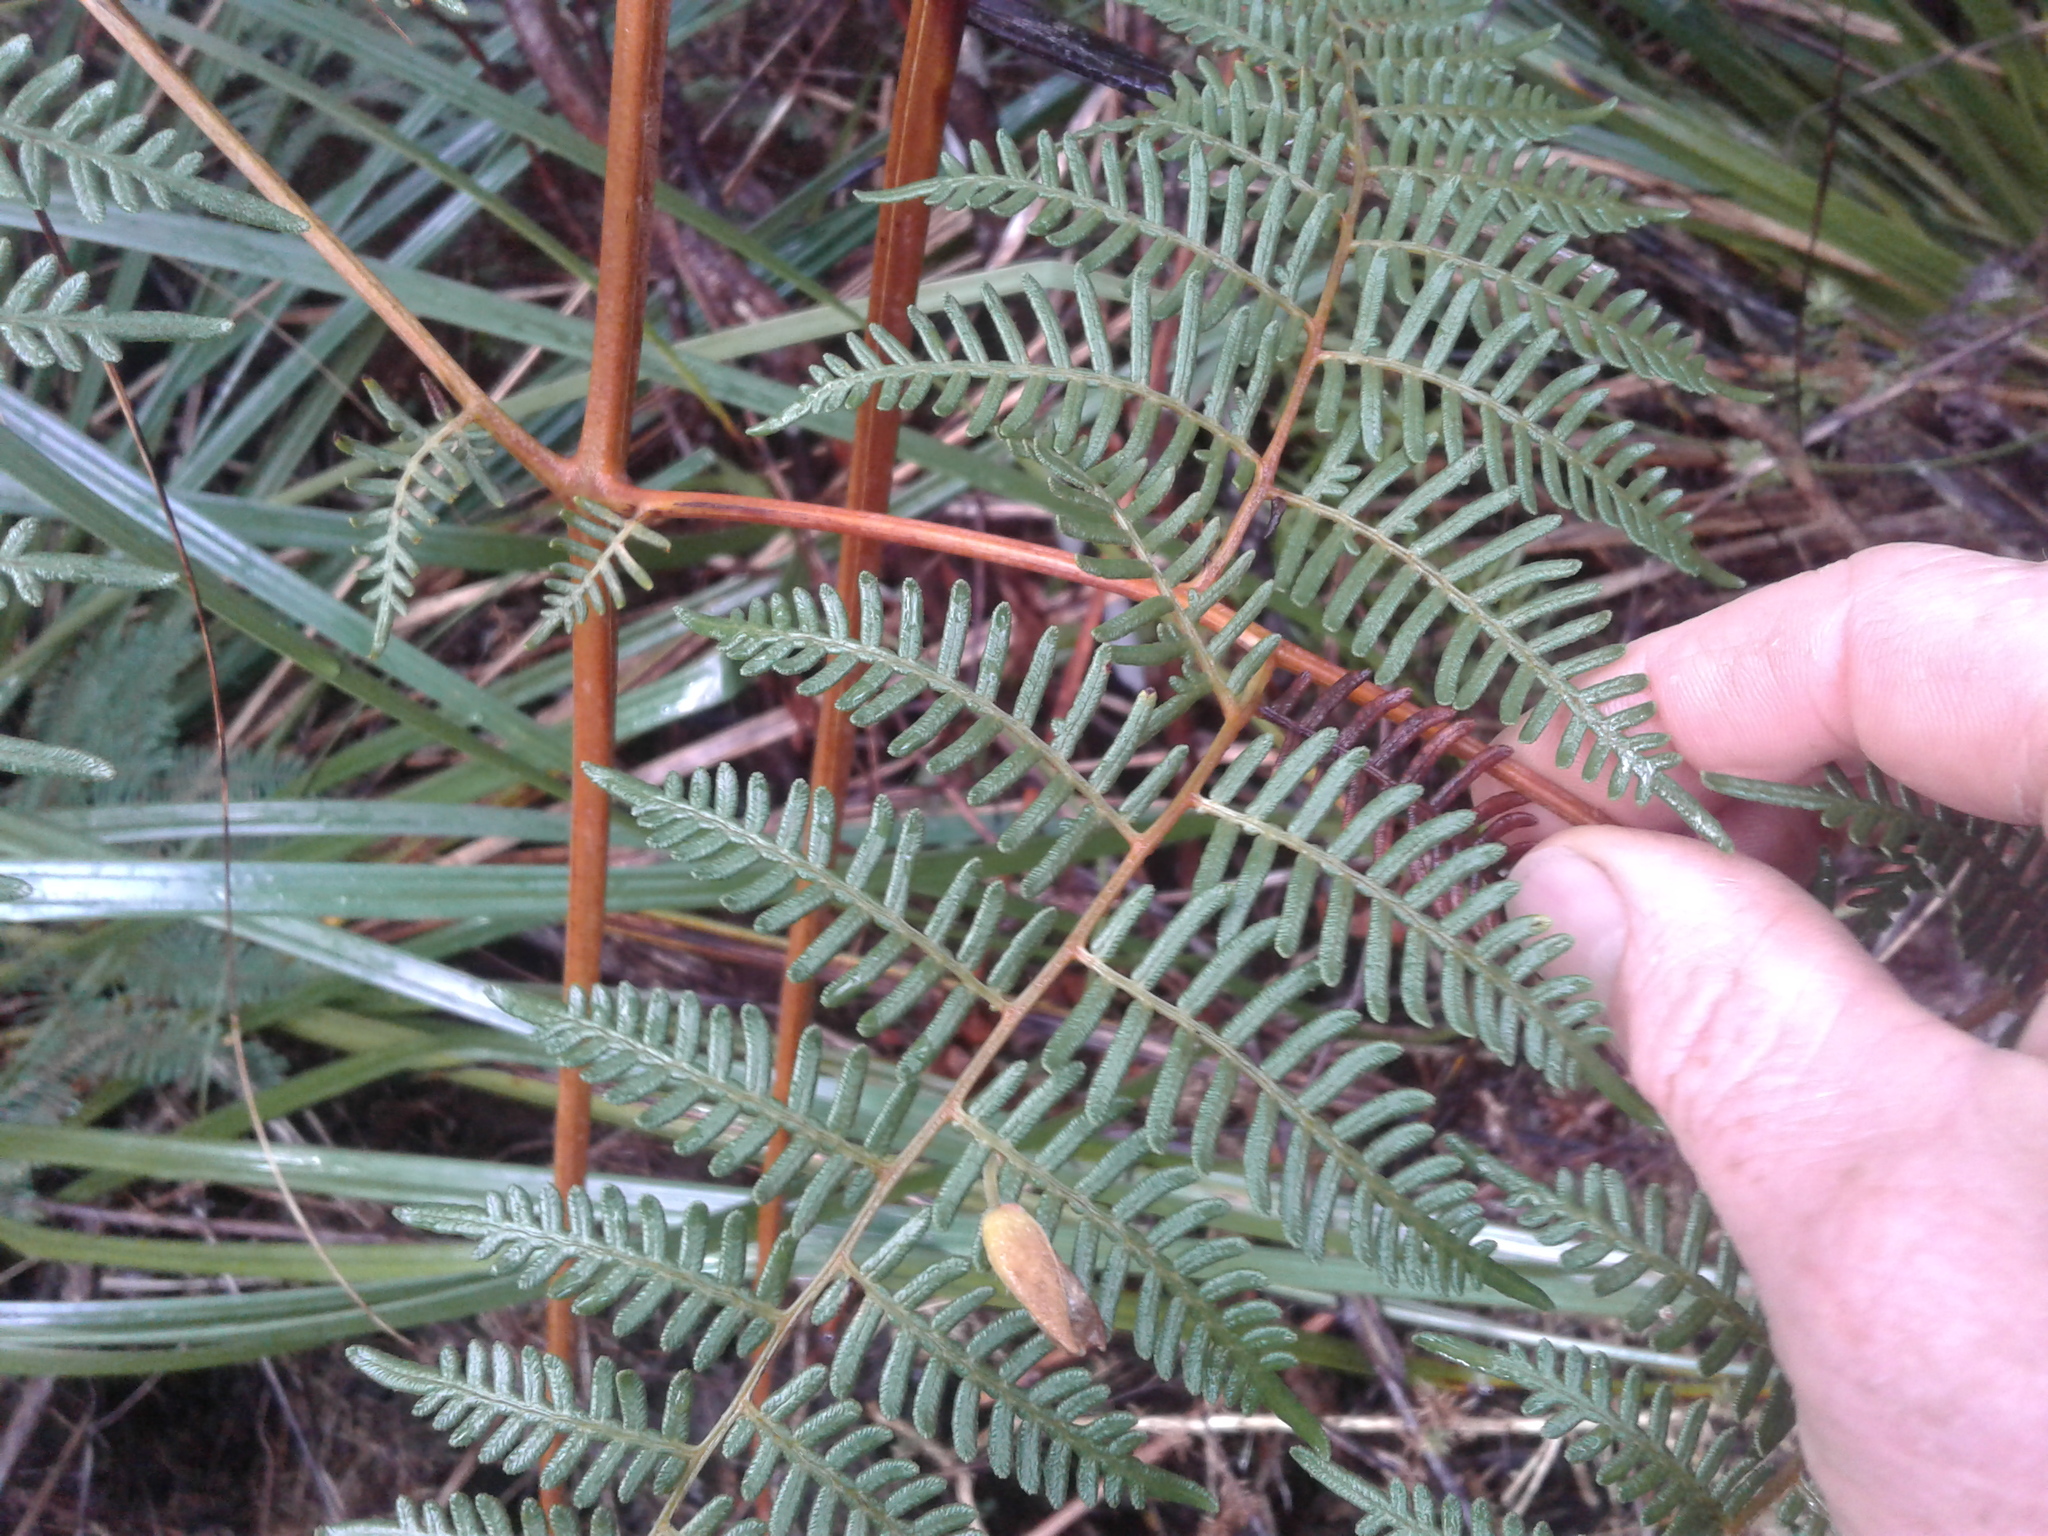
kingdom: Plantae
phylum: Tracheophyta
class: Polypodiopsida
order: Polypodiales
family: Dennstaedtiaceae
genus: Pteridium
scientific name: Pteridium esculentum
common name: Bracken fern
